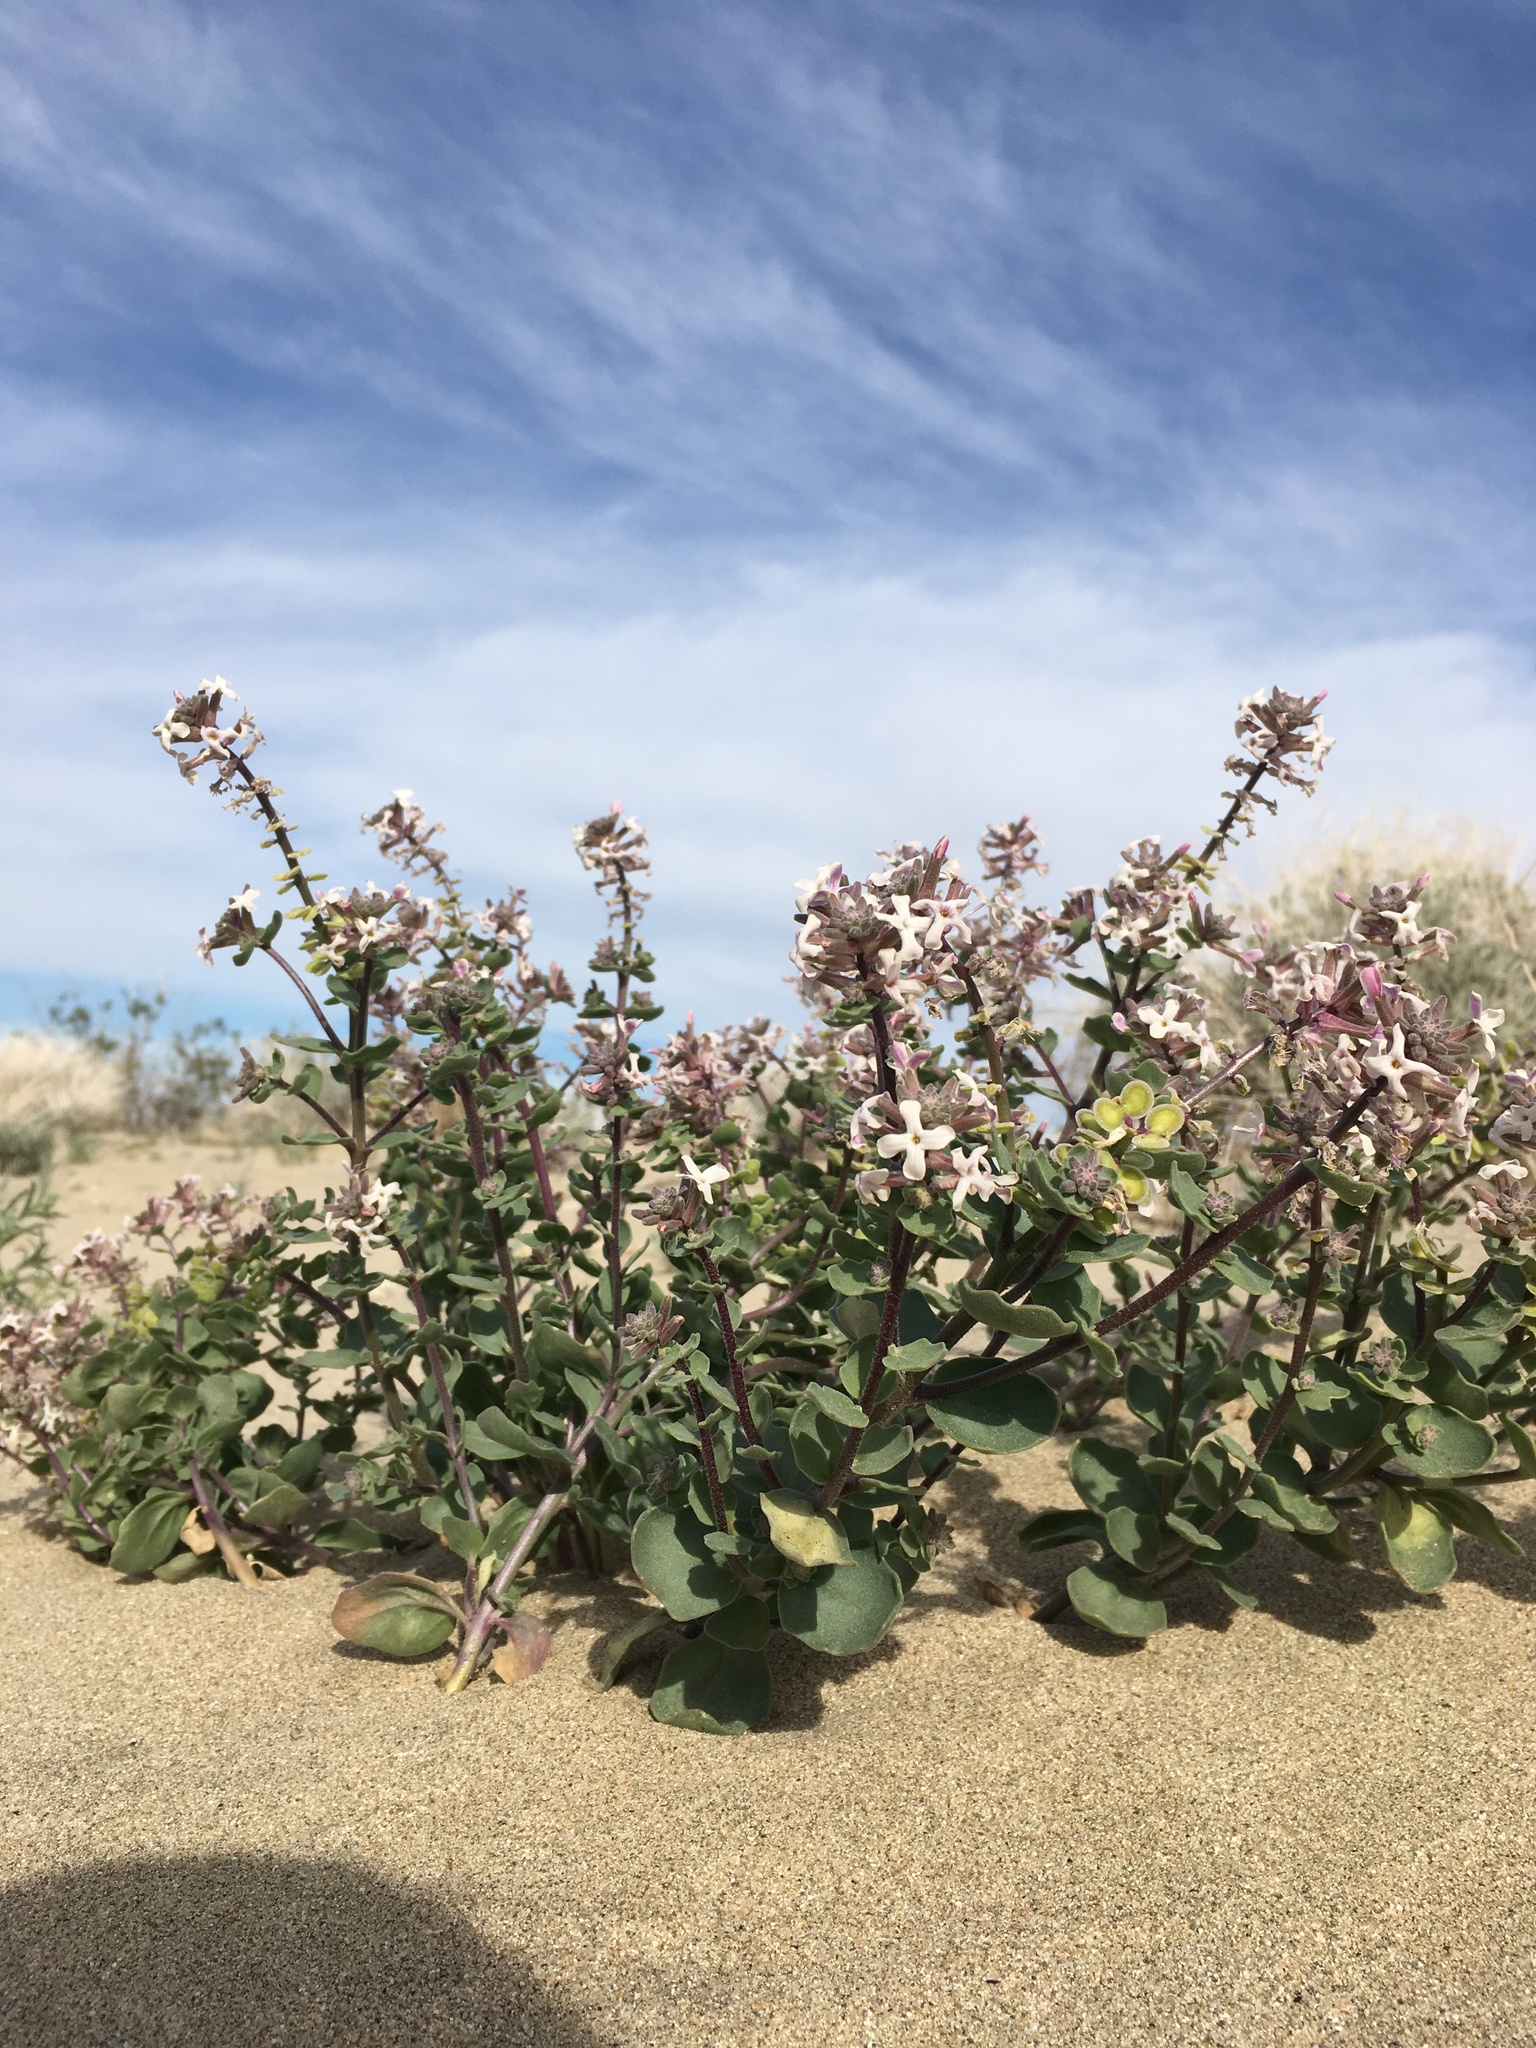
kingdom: Plantae
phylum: Tracheophyta
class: Magnoliopsida
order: Brassicales
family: Brassicaceae
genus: Dithyrea
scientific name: Dithyrea californica
